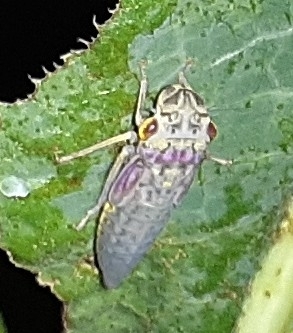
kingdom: Animalia
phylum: Arthropoda
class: Insecta
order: Hemiptera
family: Cicadellidae
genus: Oncometopia
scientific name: Oncometopia orbona
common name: Broad-headed sharpshooter
